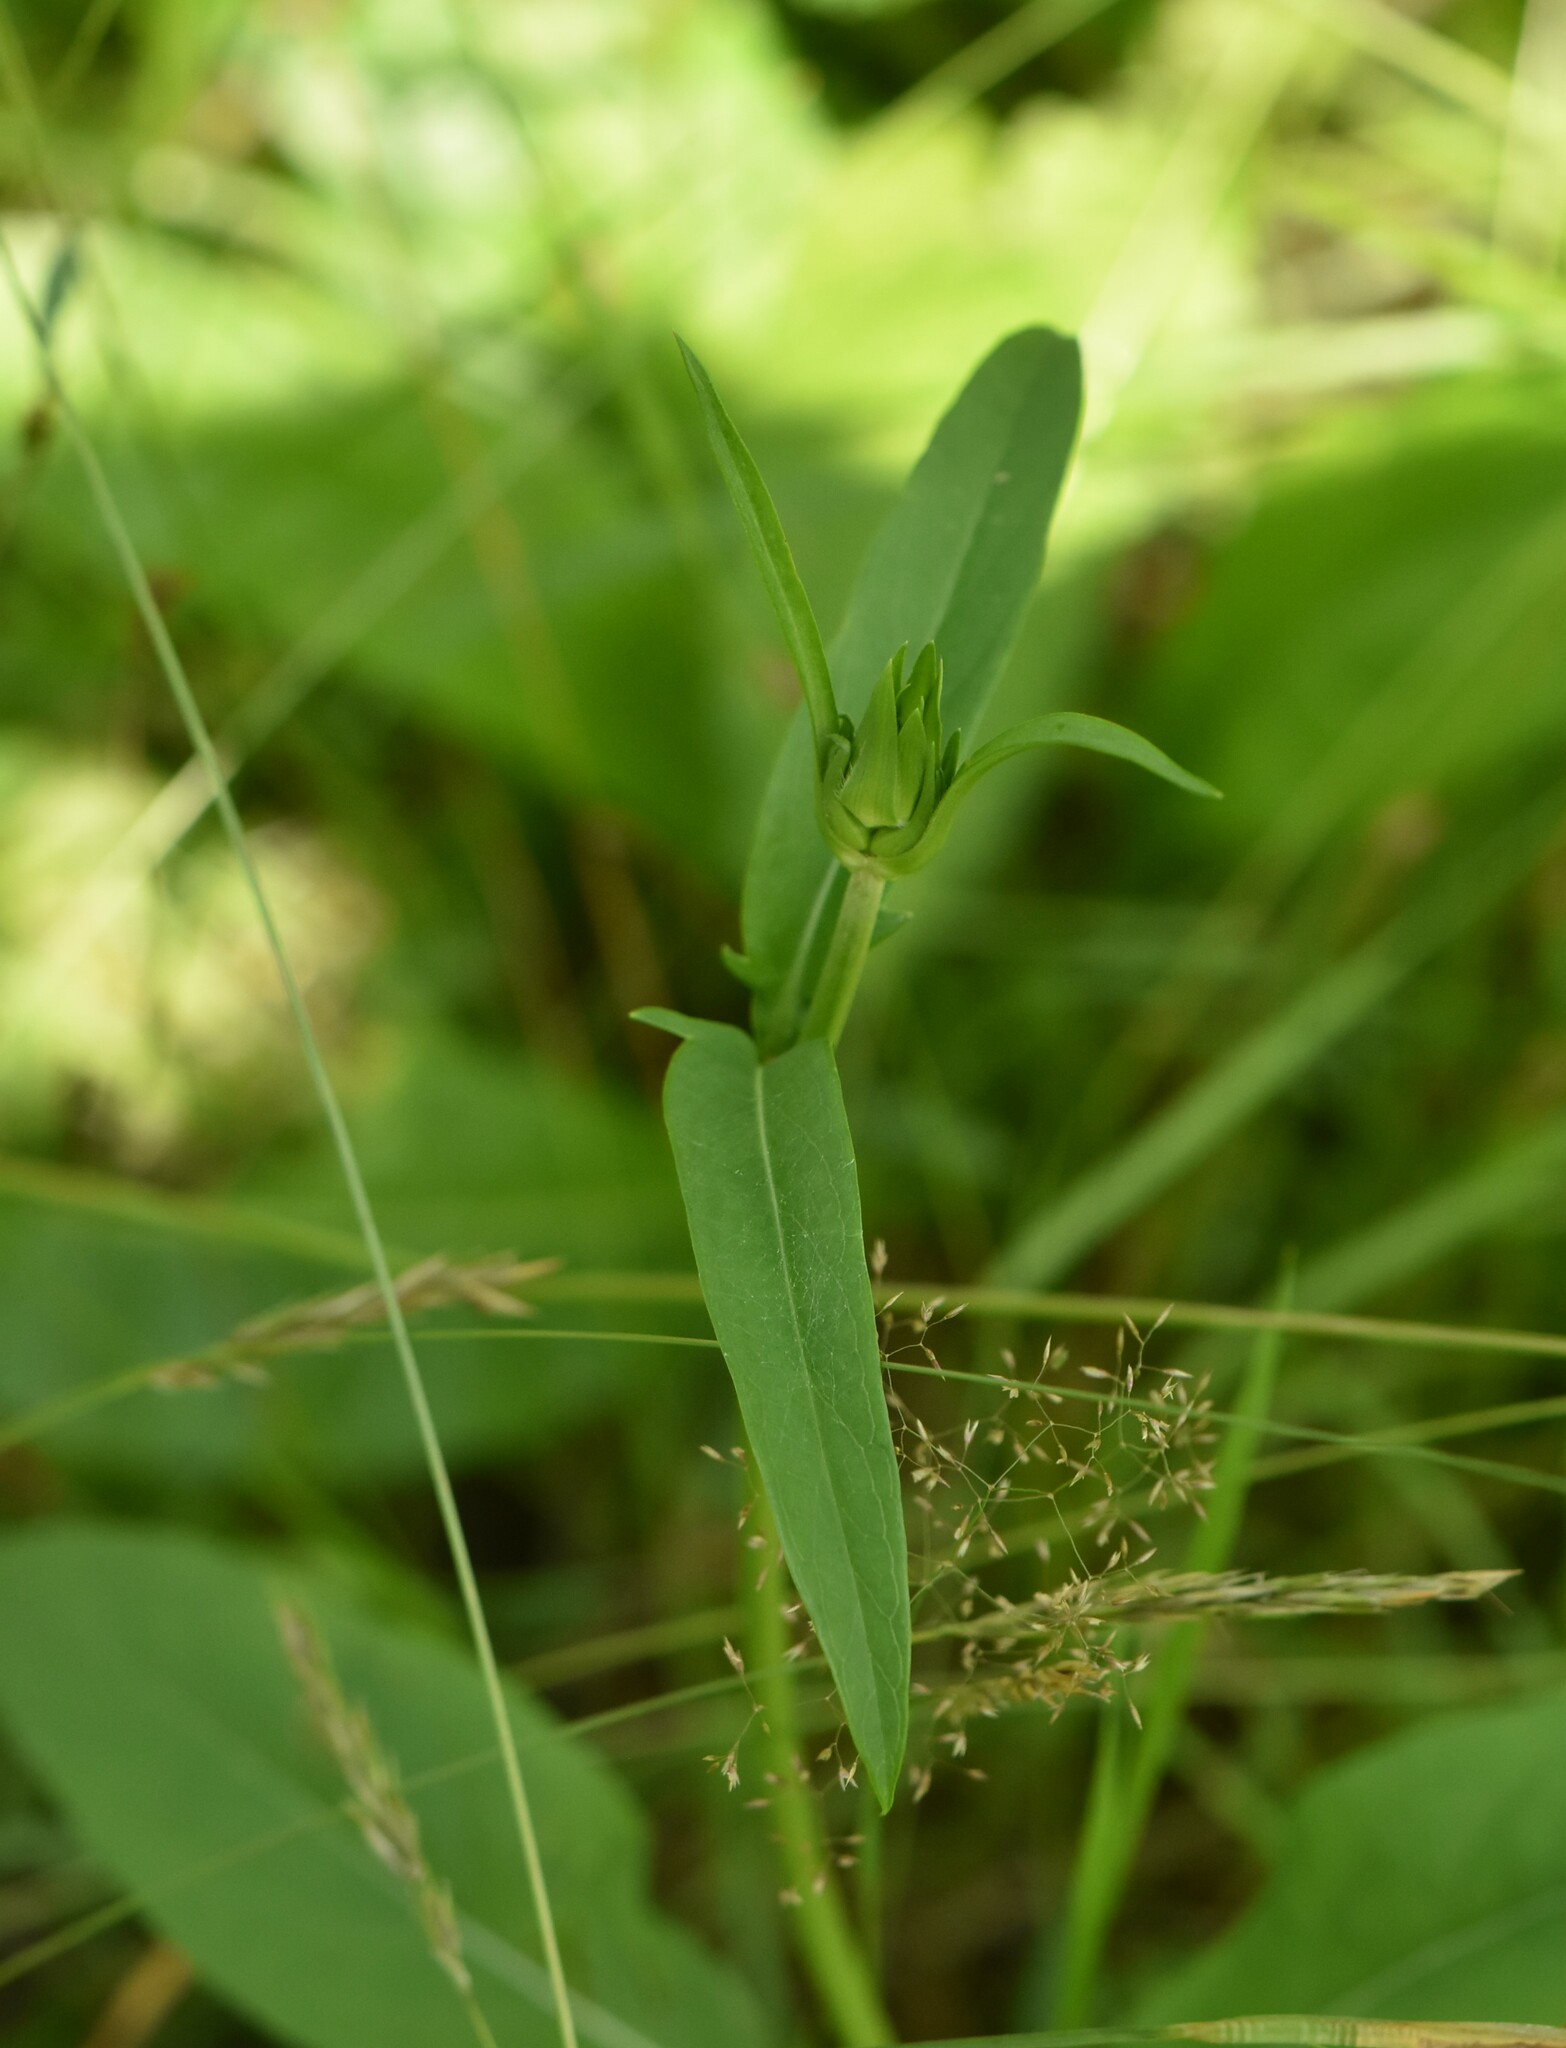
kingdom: Plantae
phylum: Tracheophyta
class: Magnoliopsida
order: Dipsacales
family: Caprifoliaceae
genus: Succisa
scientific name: Succisa pratensis
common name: Devil's-bit
